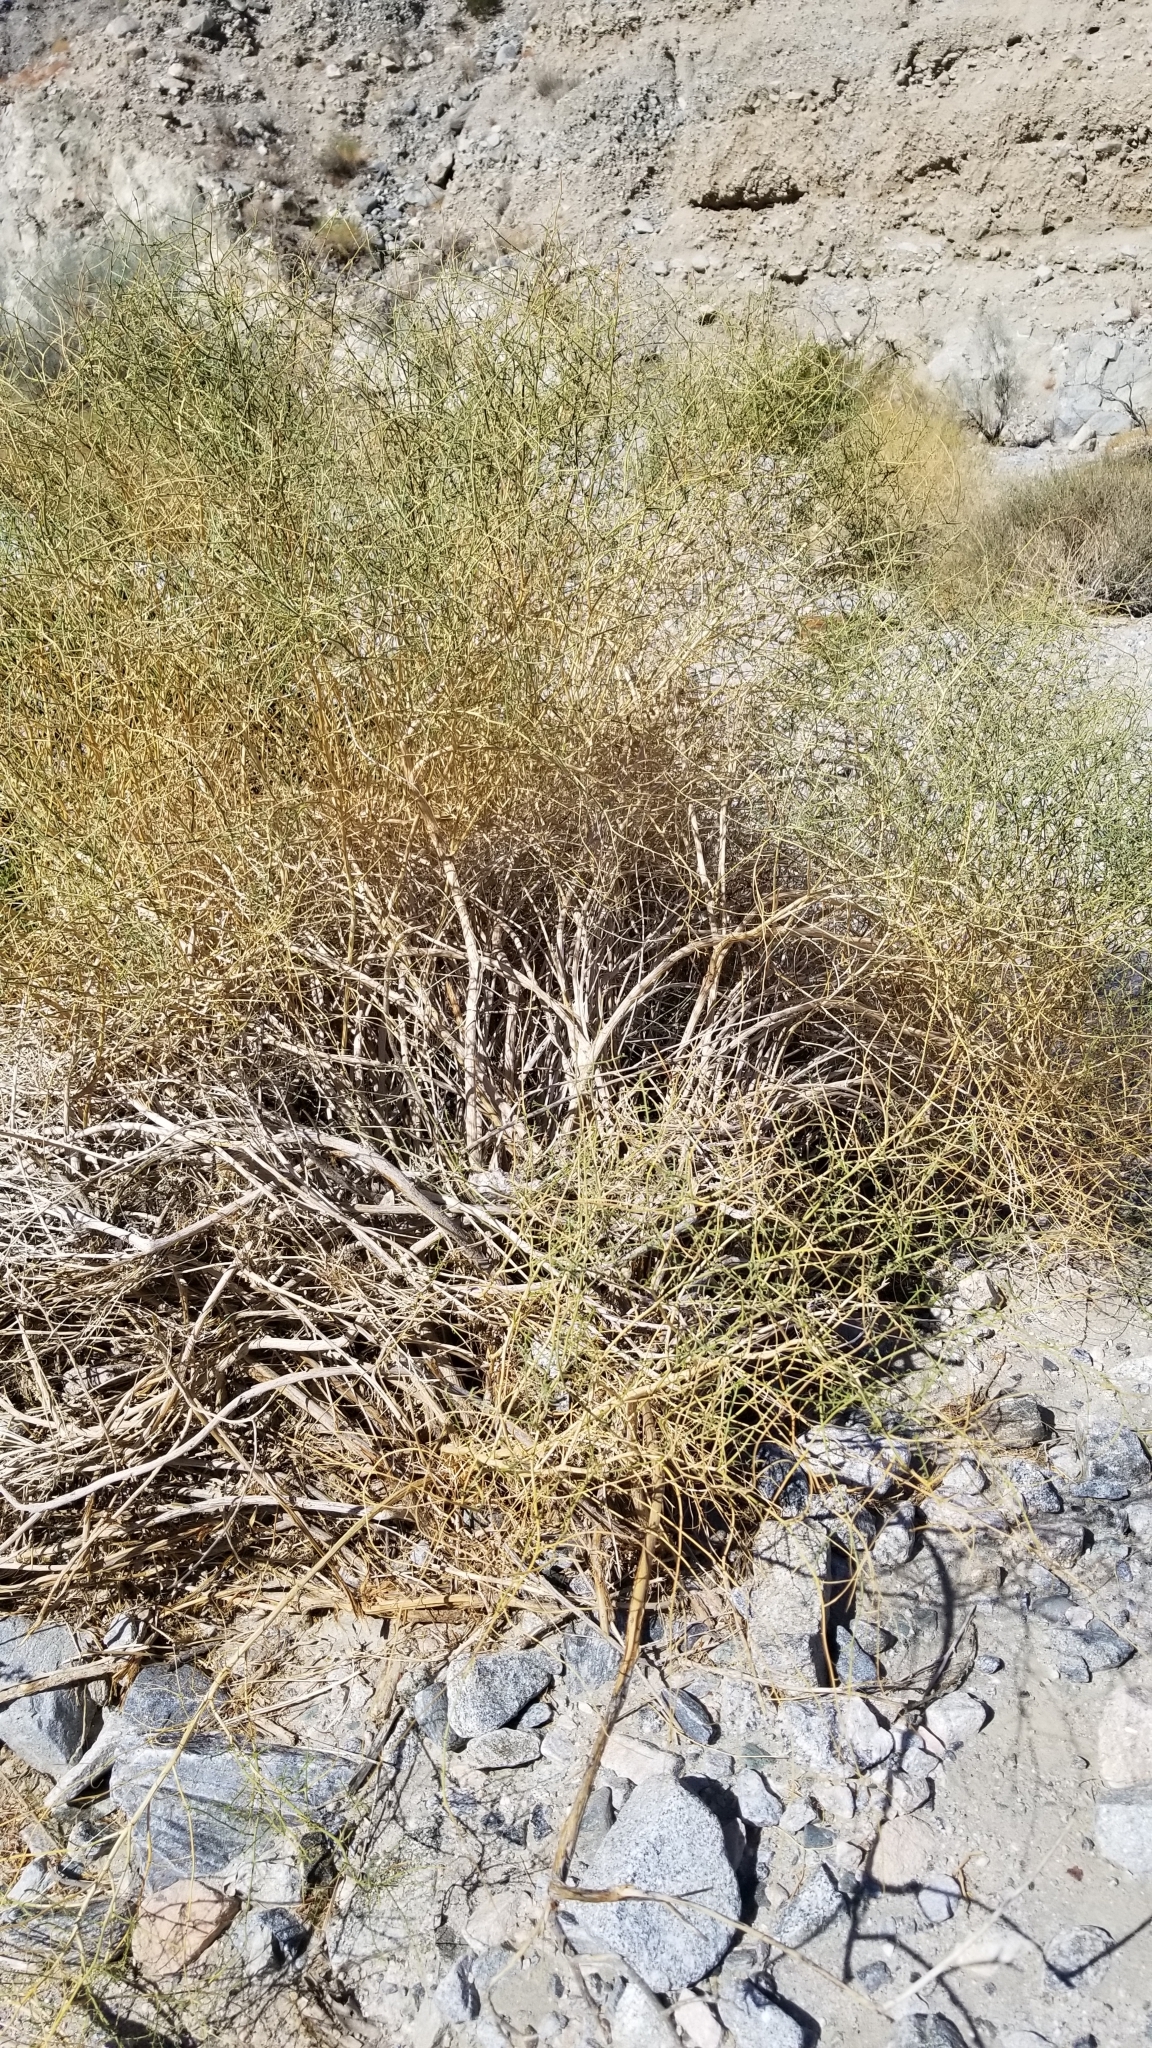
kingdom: Plantae
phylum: Tracheophyta
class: Magnoliopsida
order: Asterales
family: Asteraceae
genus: Ambrosia
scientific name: Ambrosia salsola
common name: Burrobrush
